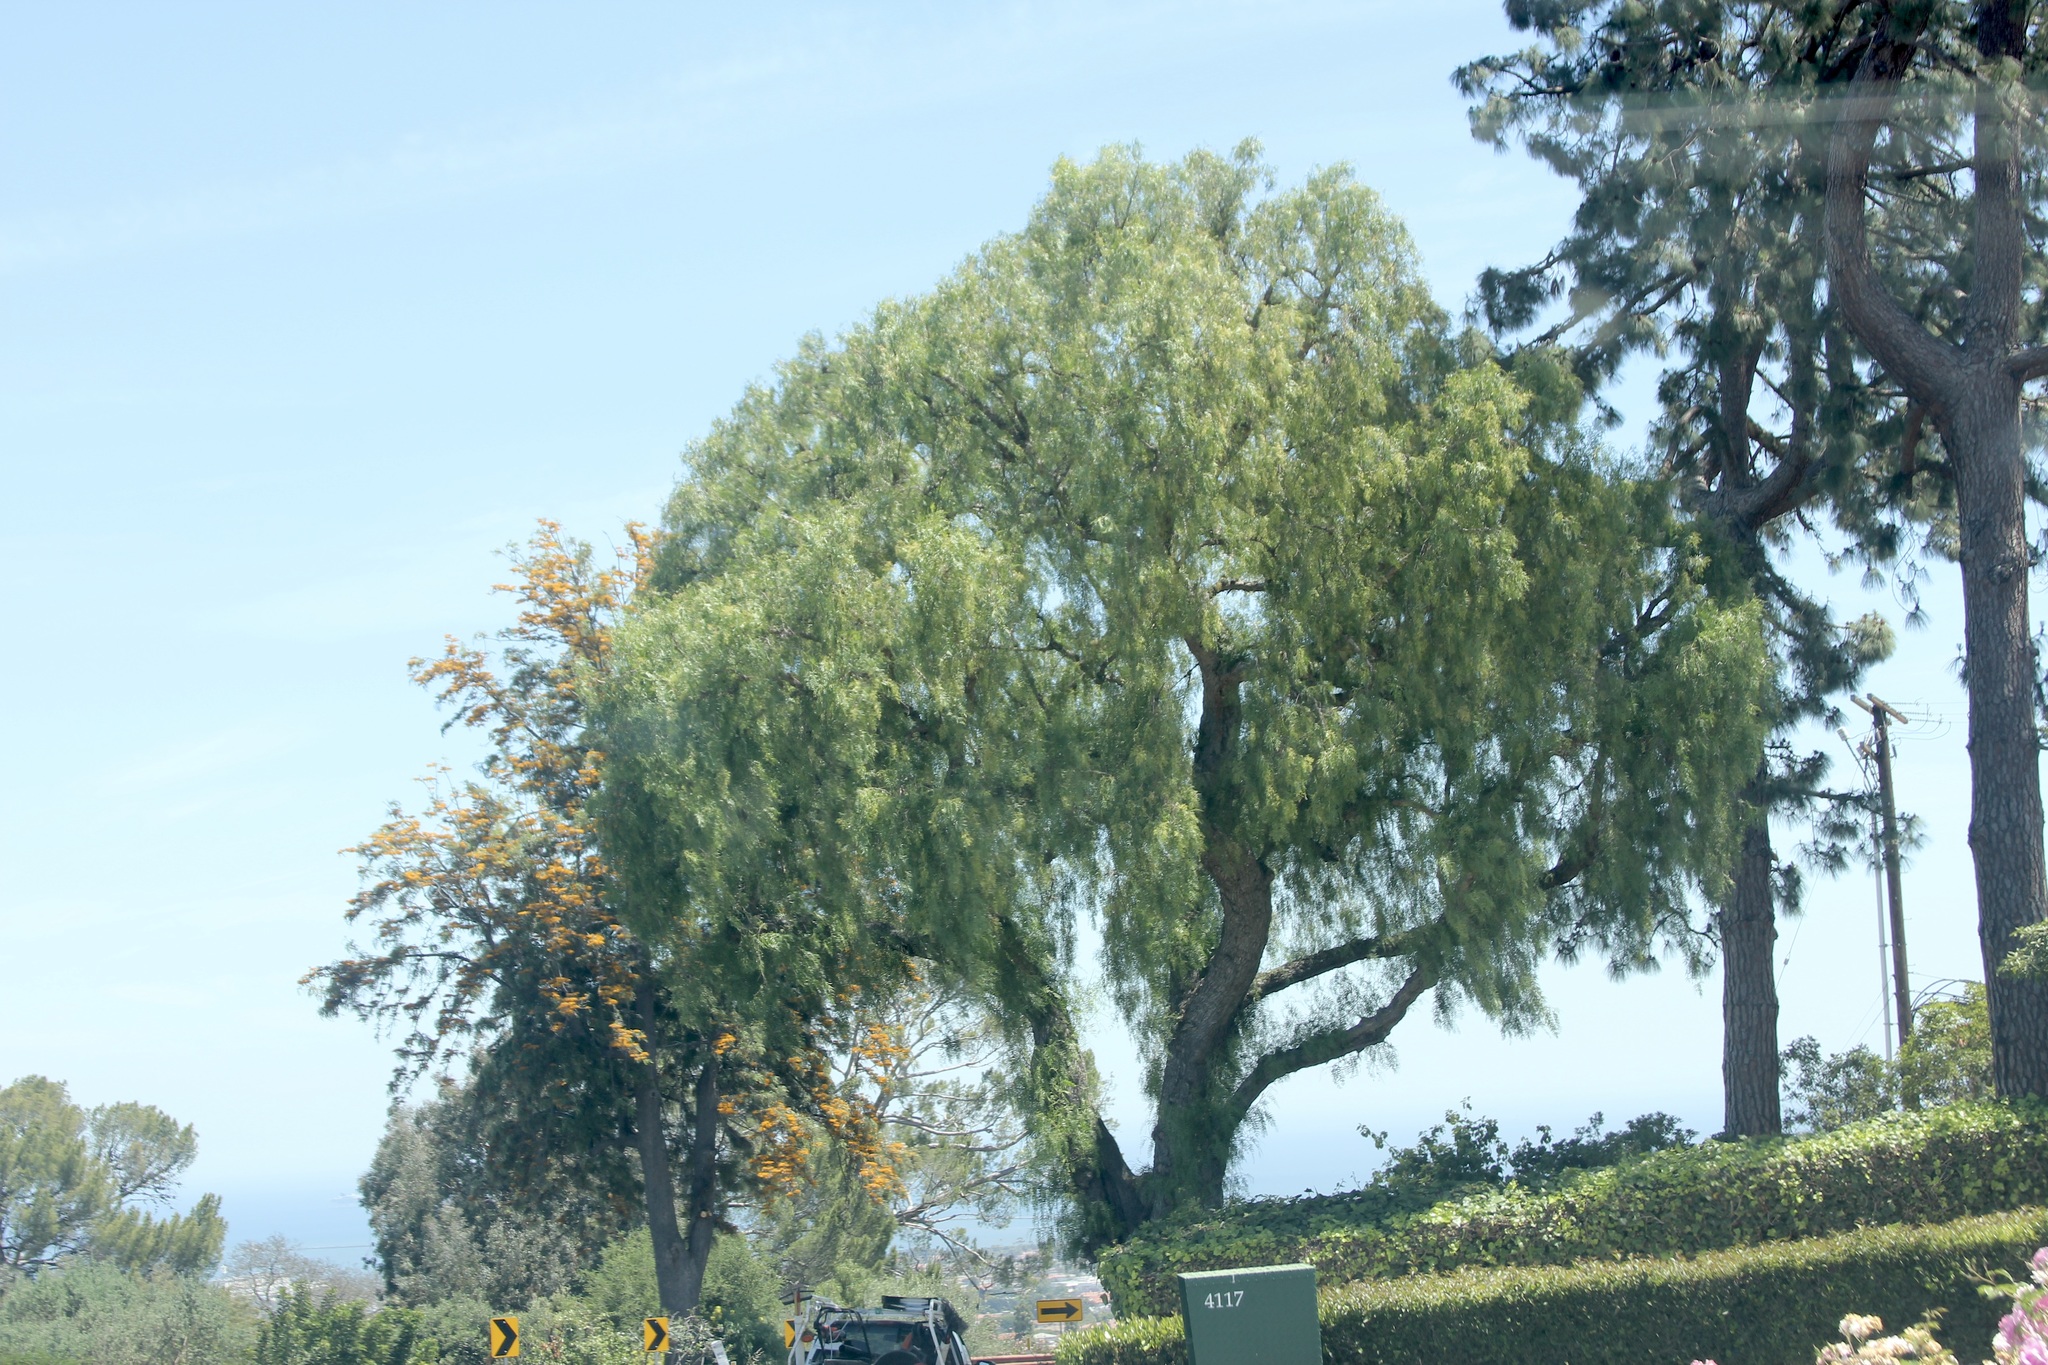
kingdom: Plantae
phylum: Tracheophyta
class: Magnoliopsida
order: Sapindales
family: Anacardiaceae
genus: Schinus
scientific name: Schinus molle
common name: Peruvian peppertree
